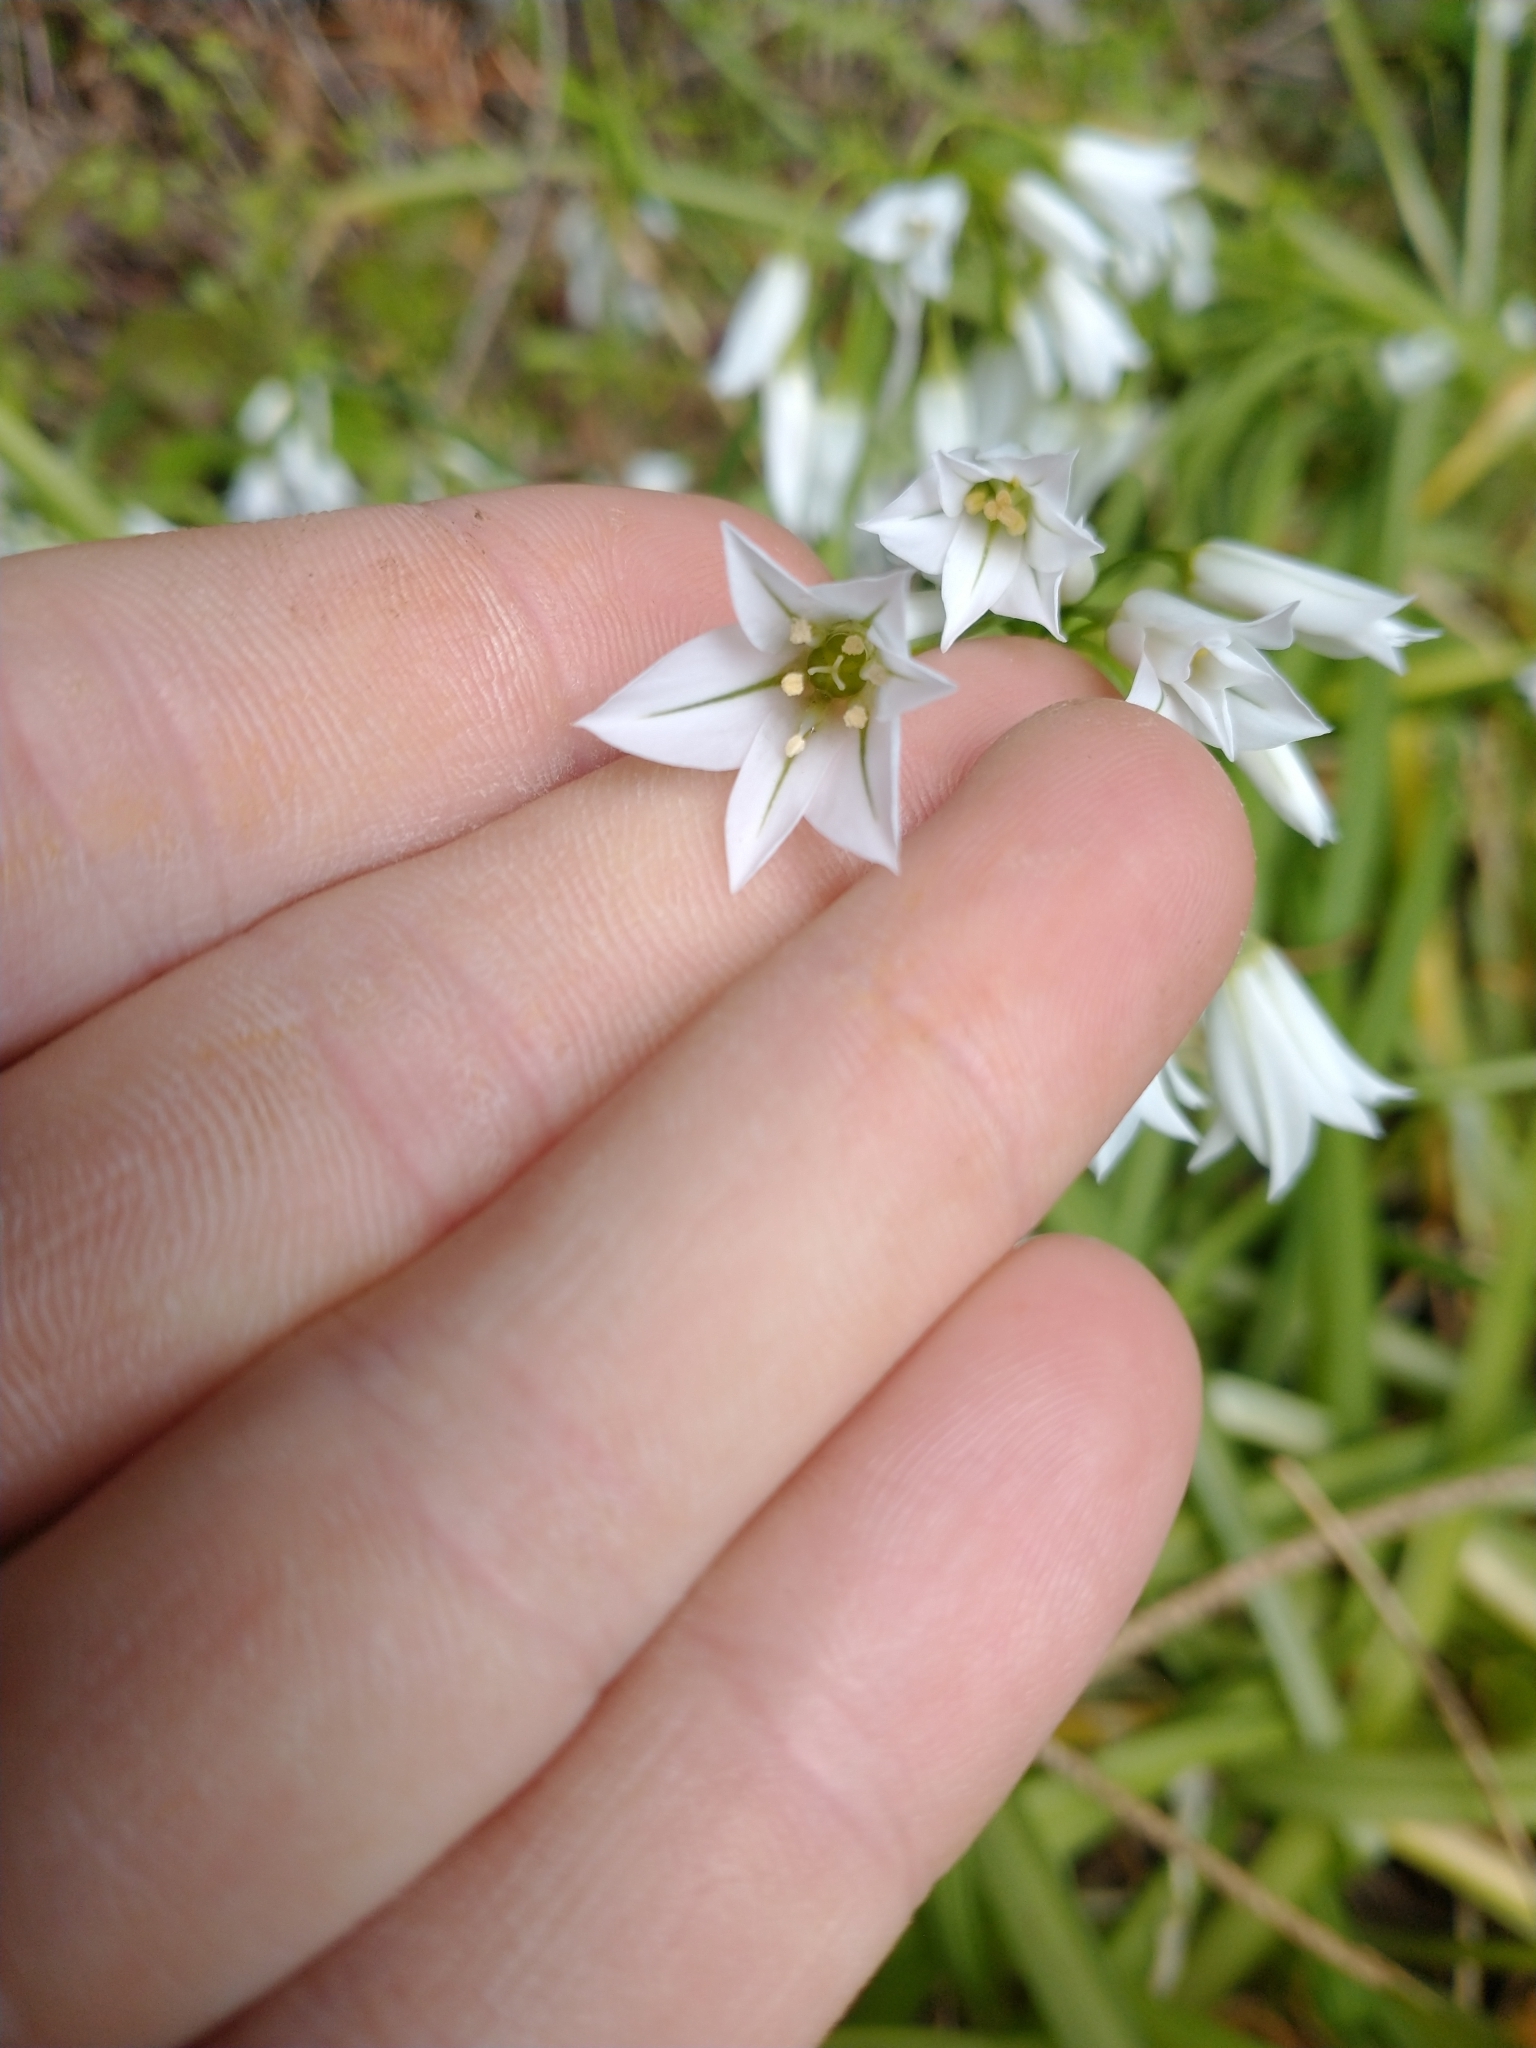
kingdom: Plantae
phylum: Tracheophyta
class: Liliopsida
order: Asparagales
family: Amaryllidaceae
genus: Allium
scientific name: Allium triquetrum
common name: Three-cornered garlic
